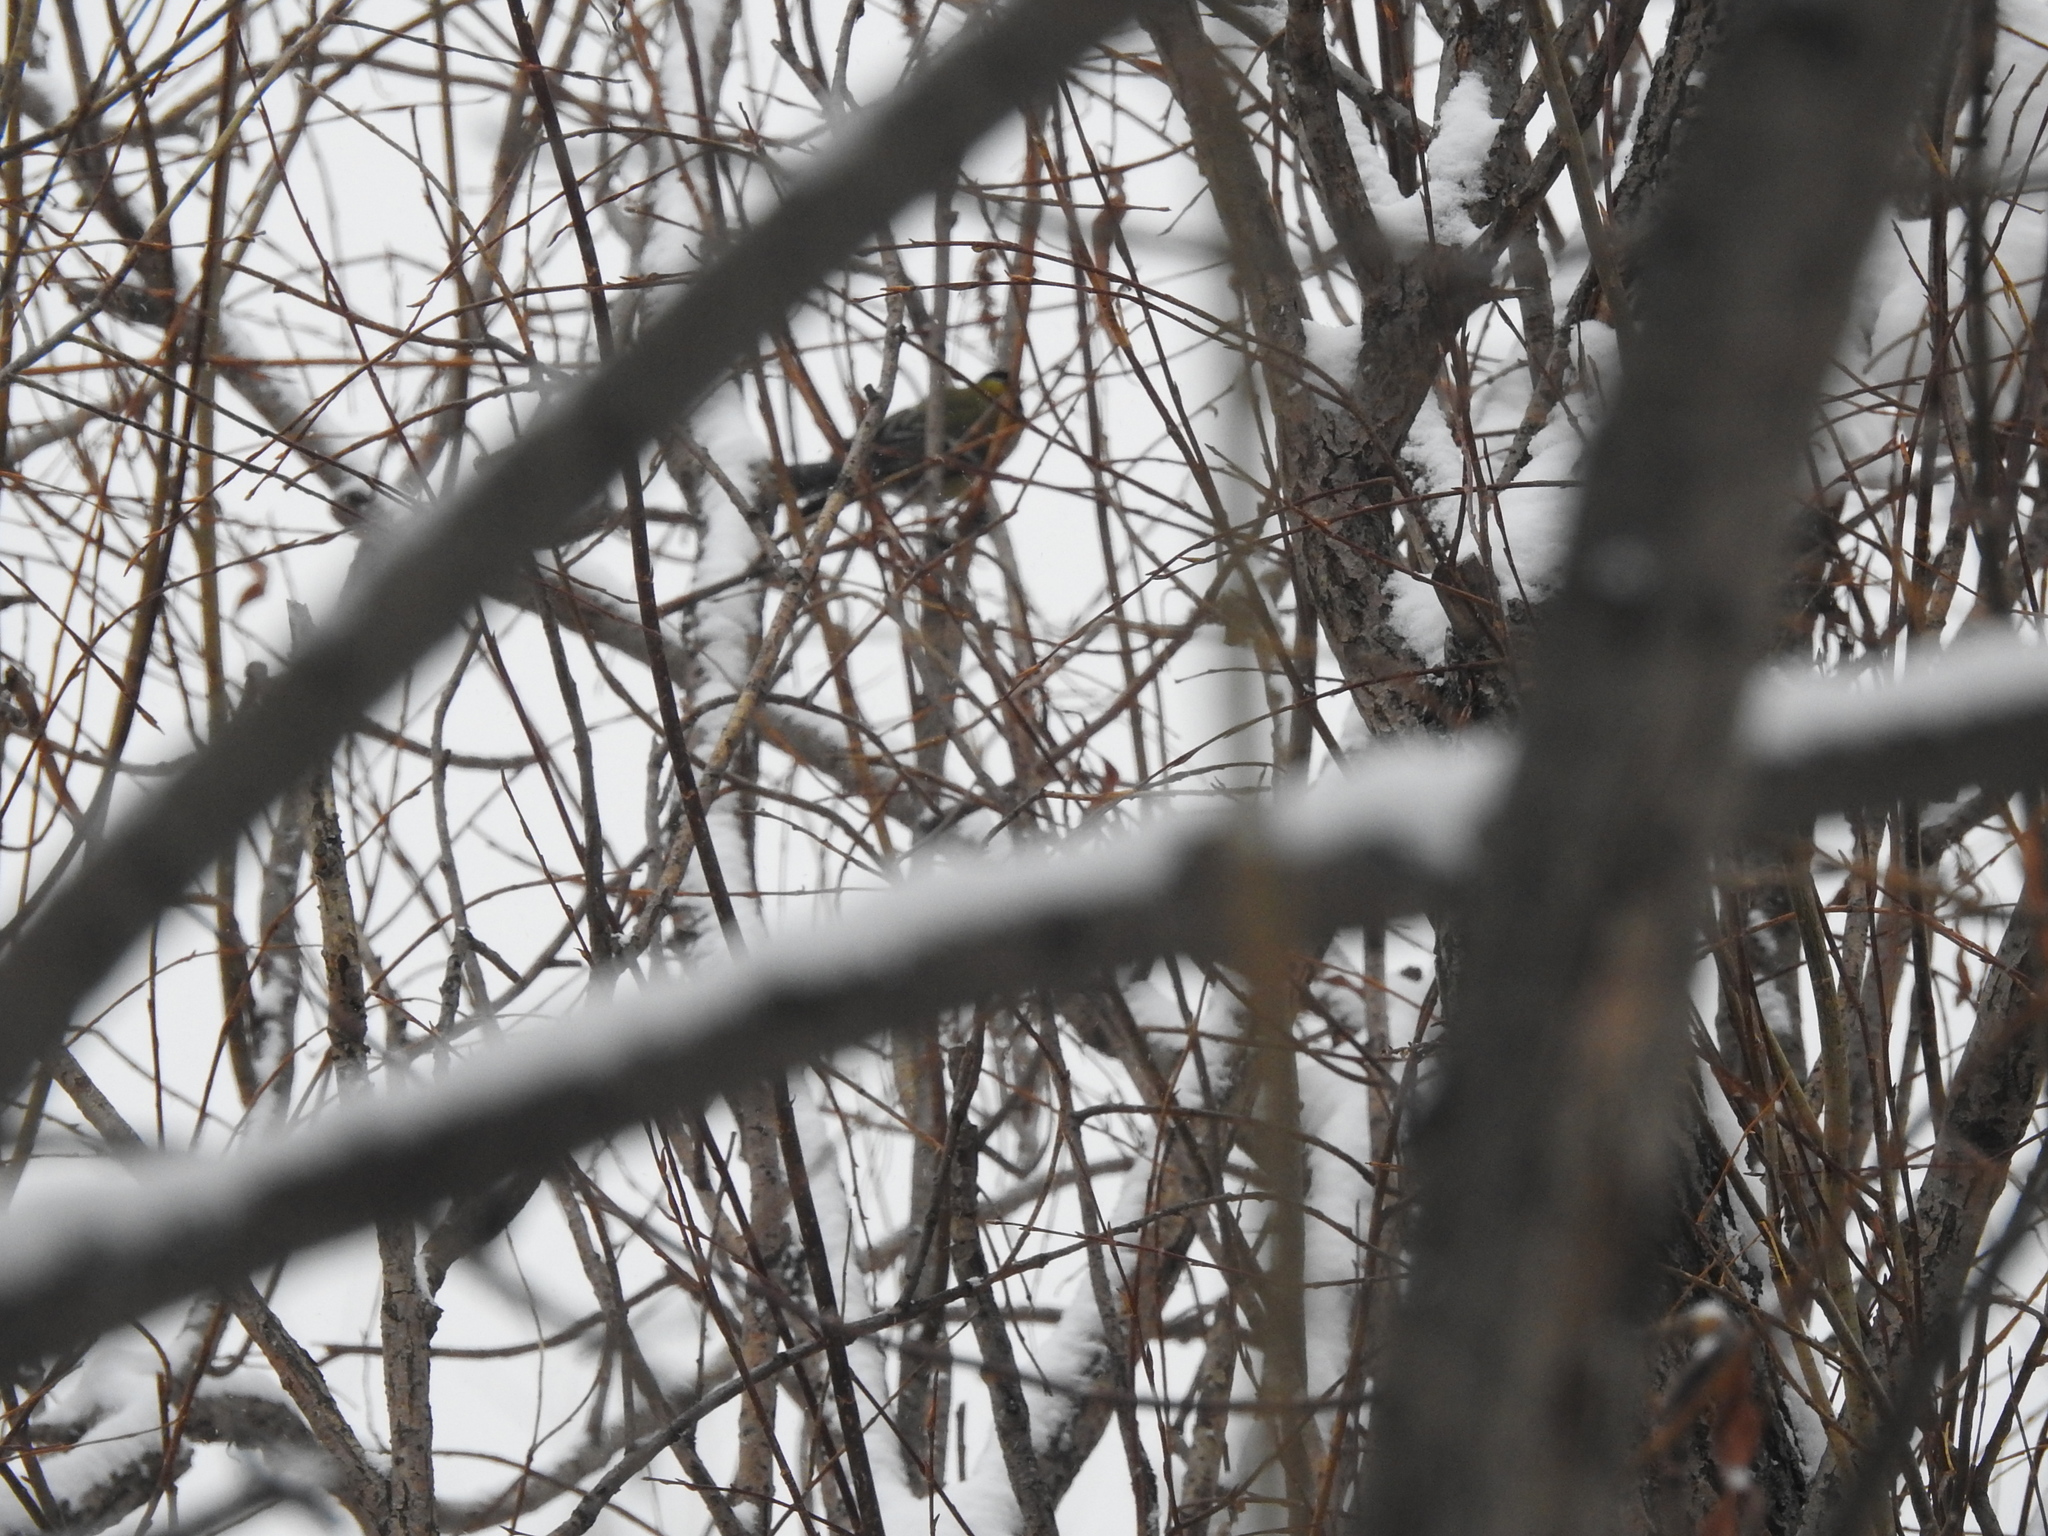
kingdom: Animalia
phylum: Chordata
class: Aves
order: Passeriformes
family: Paridae
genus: Parus
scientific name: Parus major
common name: Great tit
